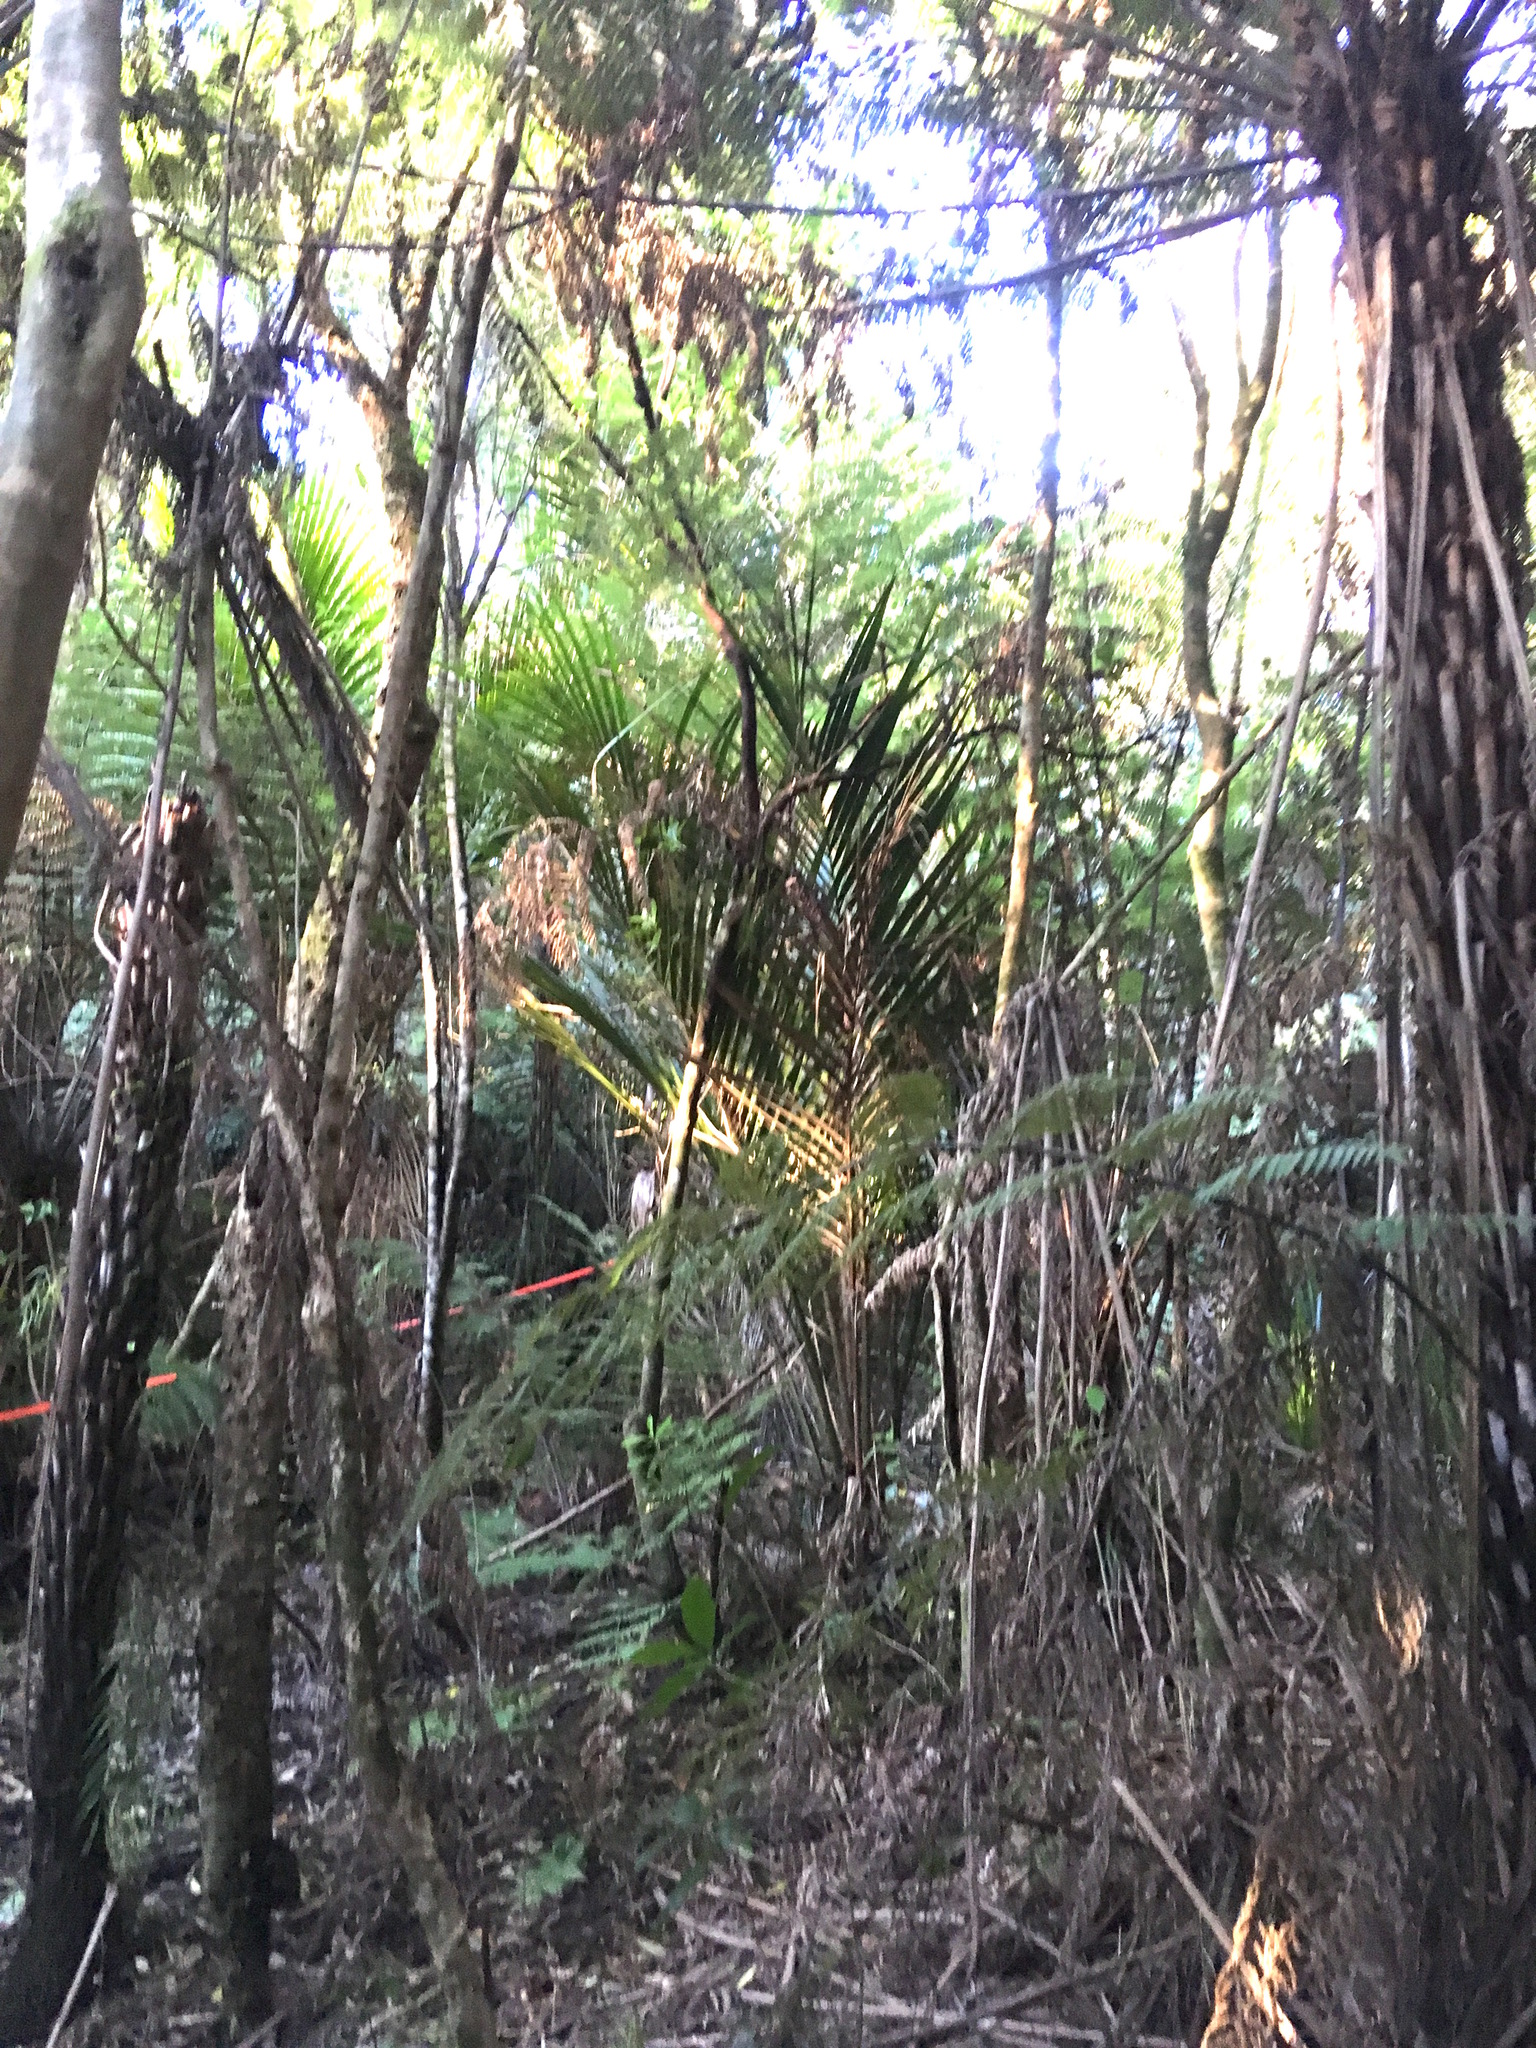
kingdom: Plantae
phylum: Tracheophyta
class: Polypodiopsida
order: Cyatheales
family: Cyatheaceae
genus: Alsophila
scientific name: Alsophila dealbata
